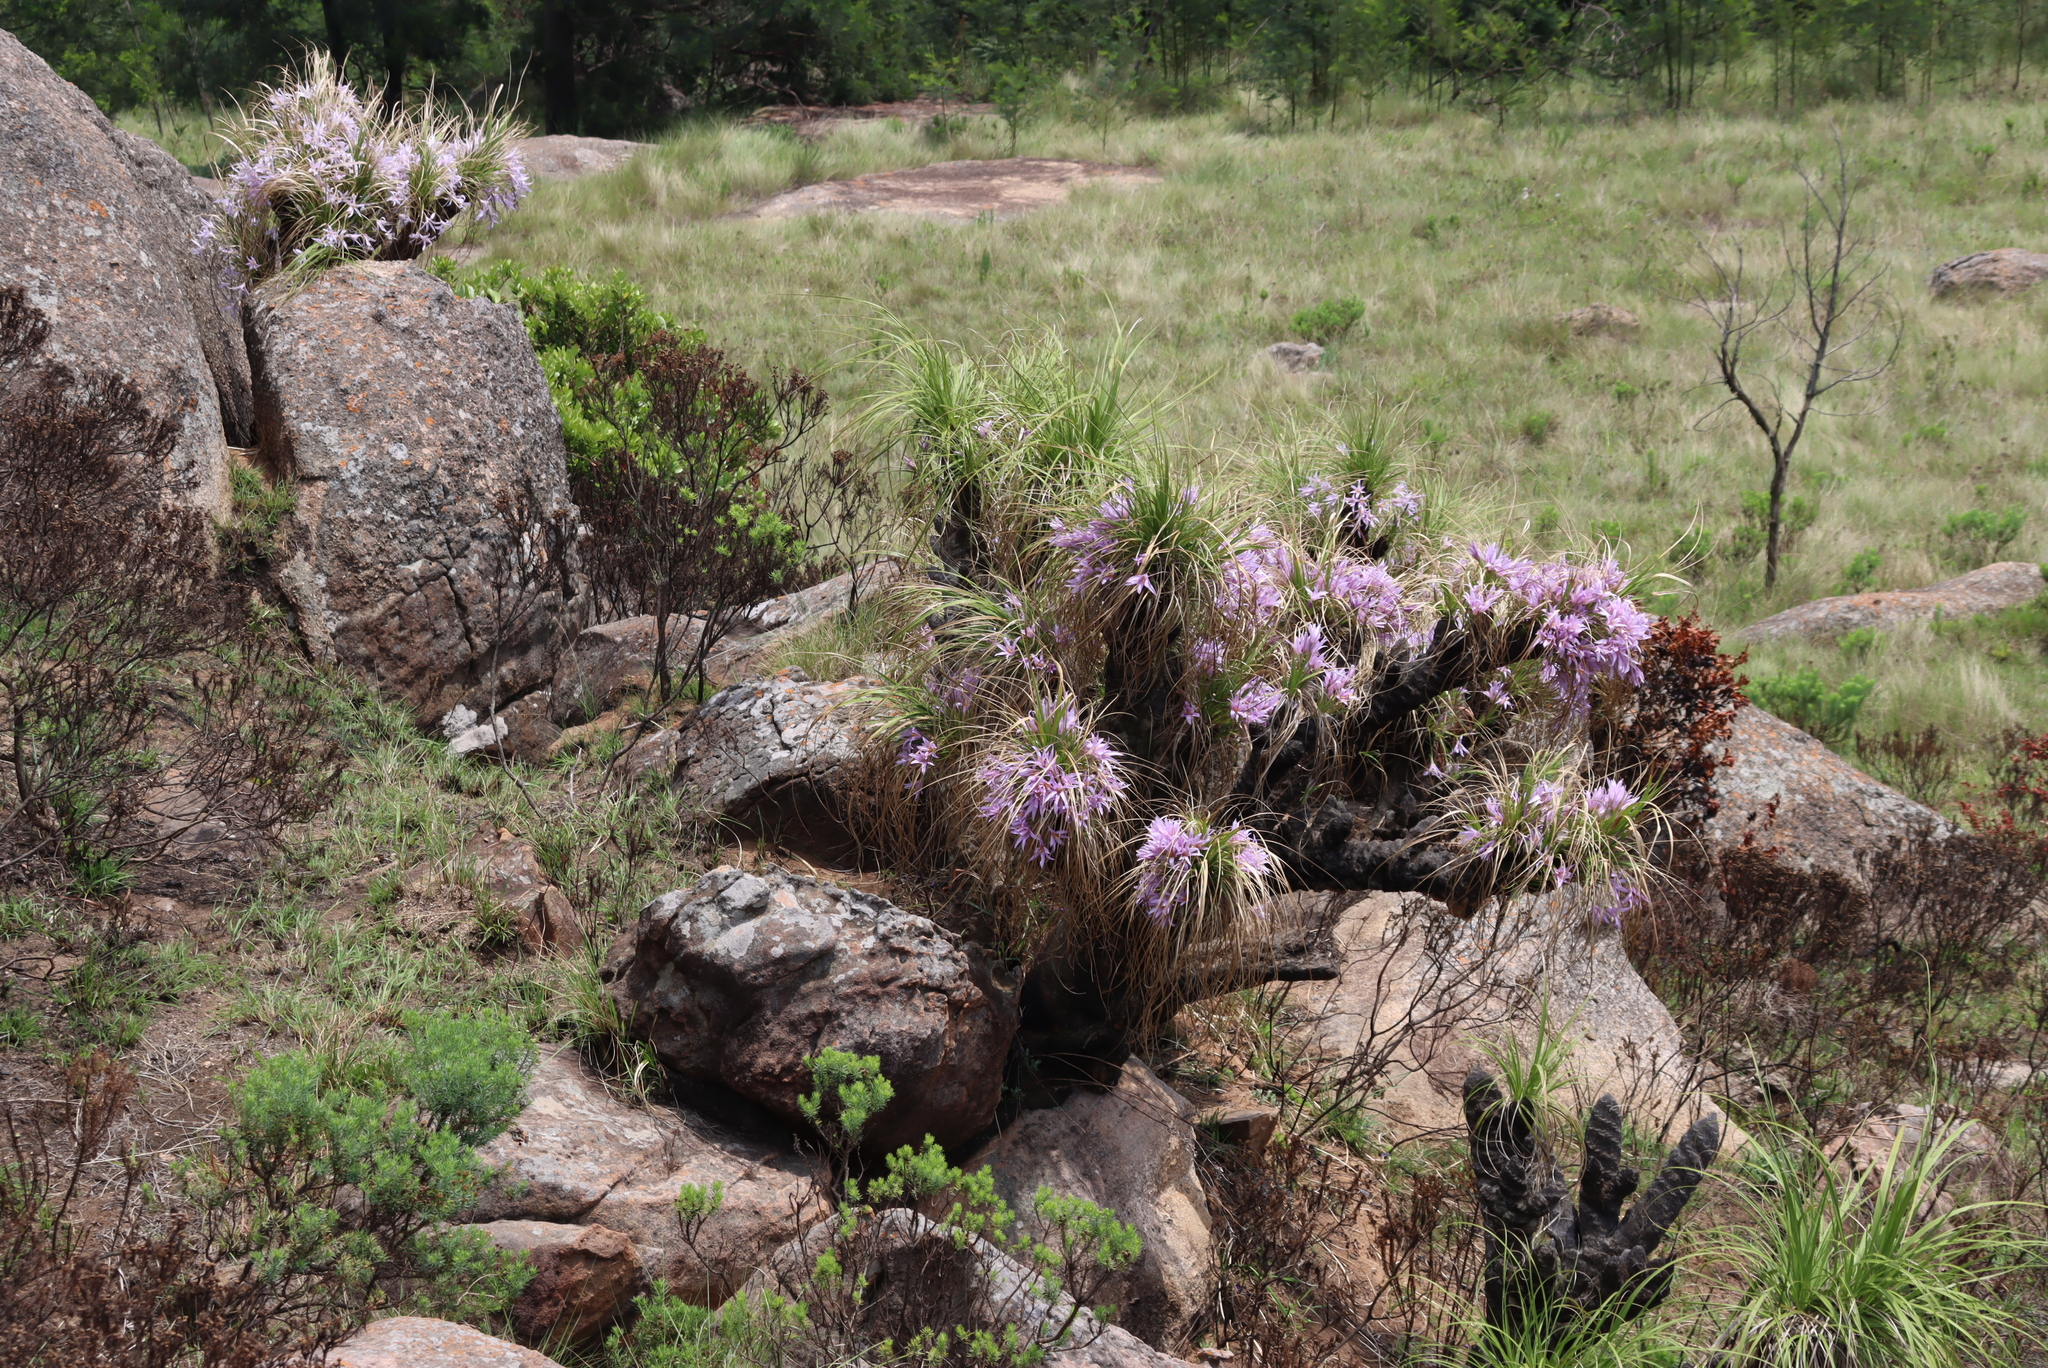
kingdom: Plantae
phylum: Tracheophyta
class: Liliopsida
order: Pandanales
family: Velloziaceae
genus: Xerophyta
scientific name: Xerophyta retinervis
